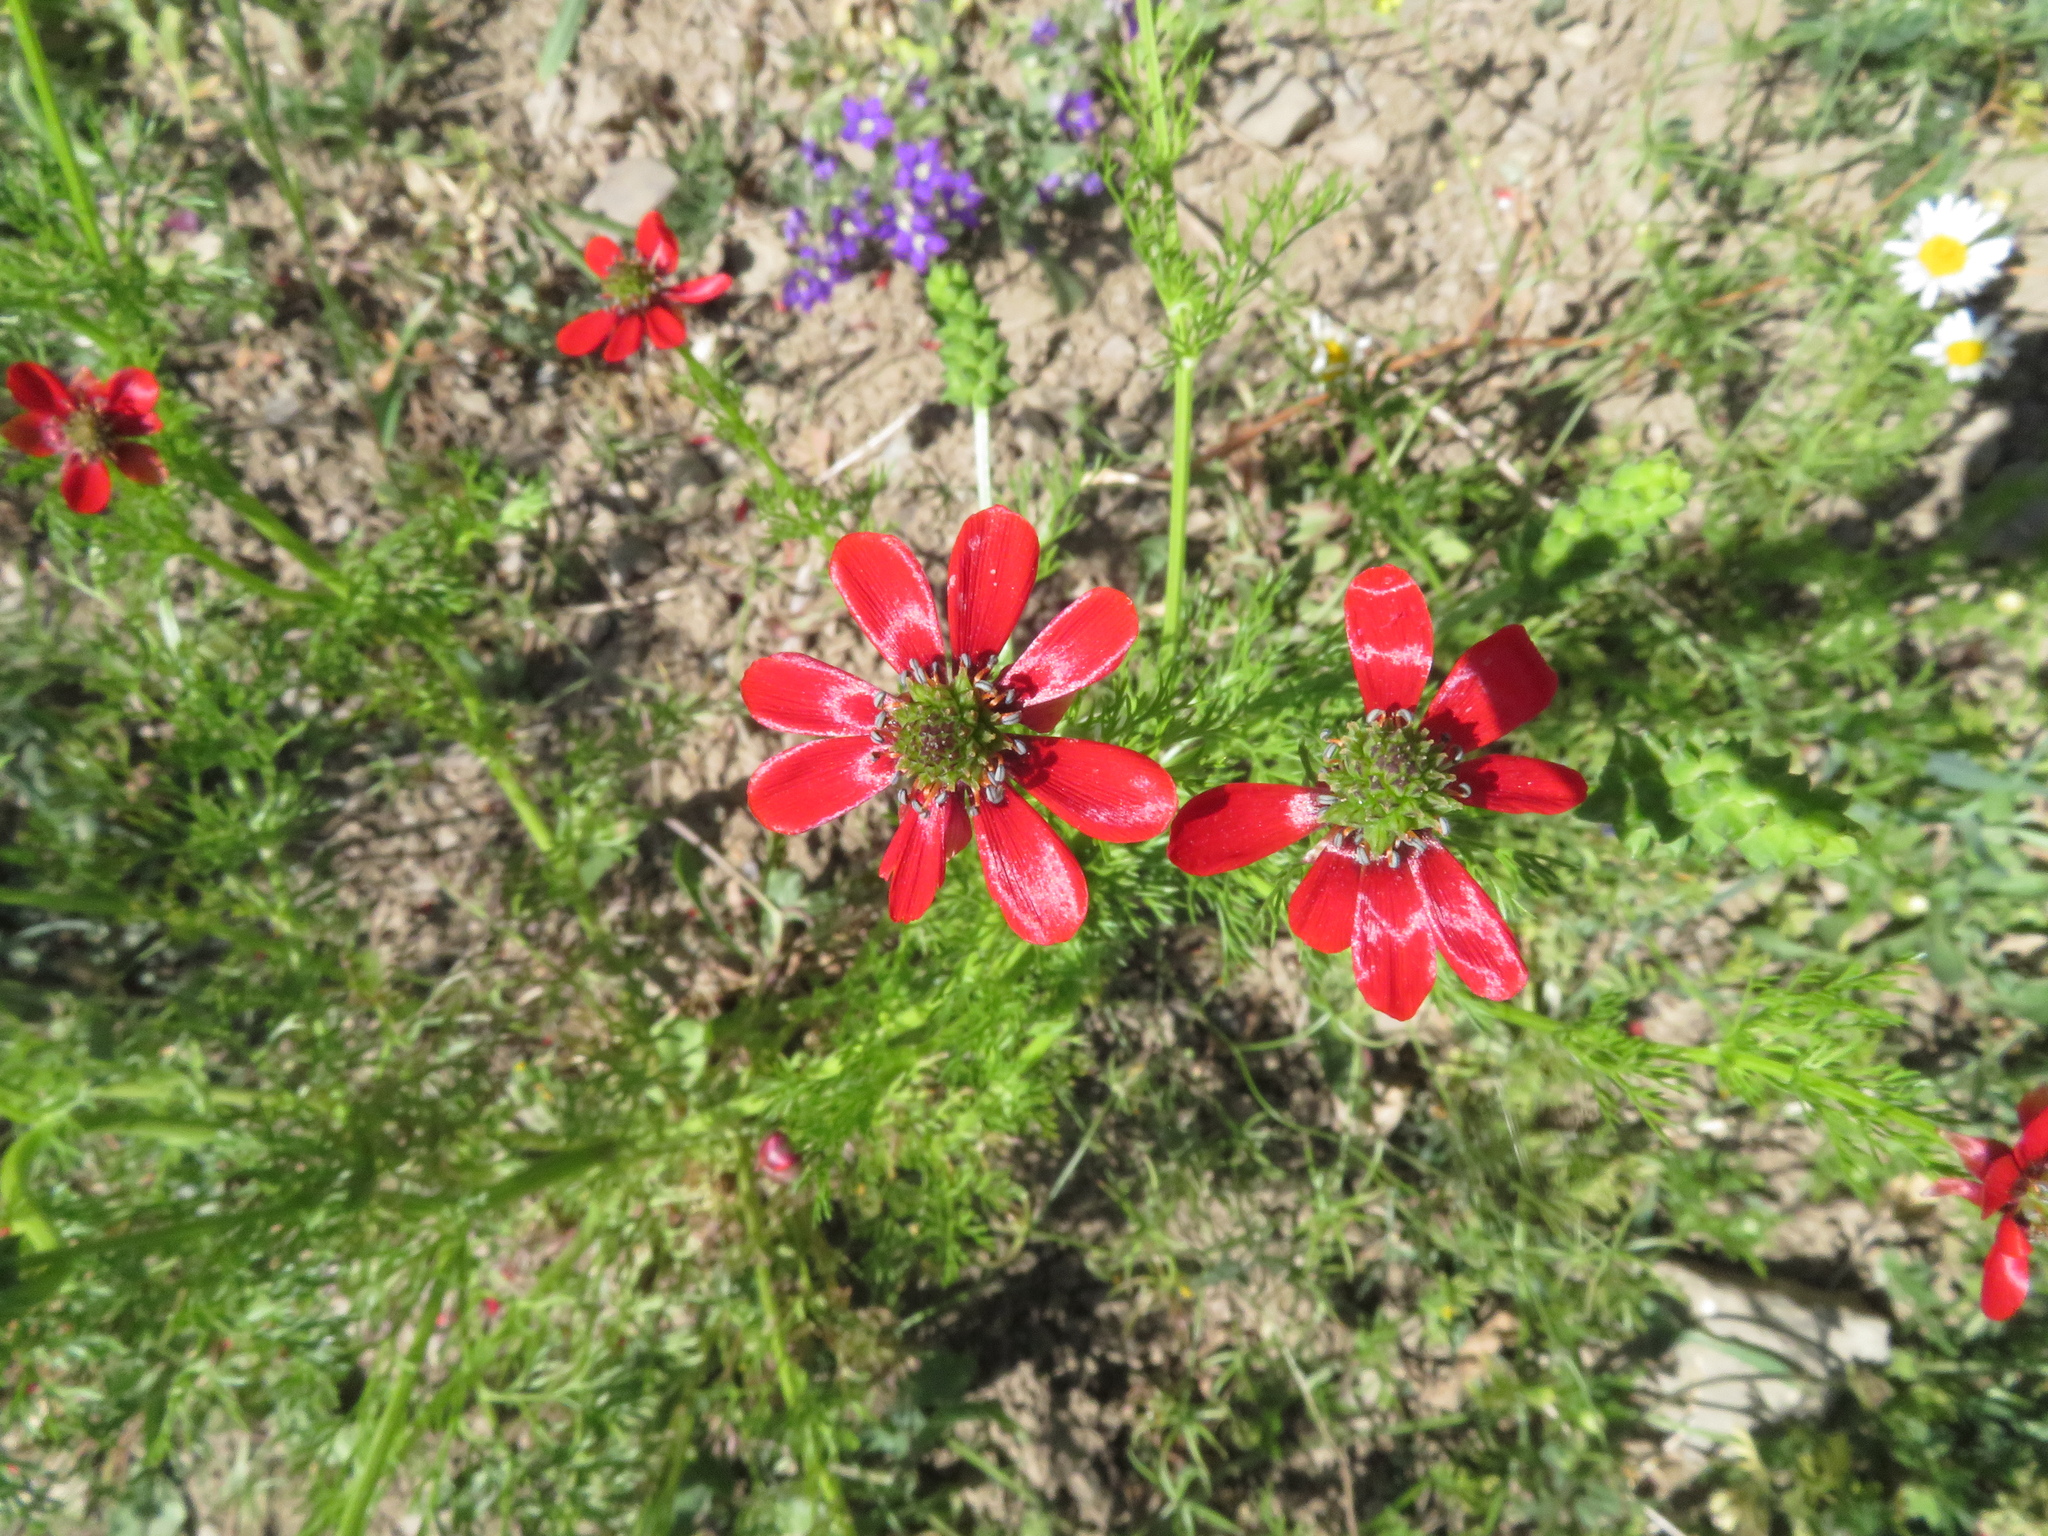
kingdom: Plantae
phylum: Tracheophyta
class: Magnoliopsida
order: Ranunculales
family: Ranunculaceae
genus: Adonis
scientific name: Adonis annua
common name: Pheasant's-eye
